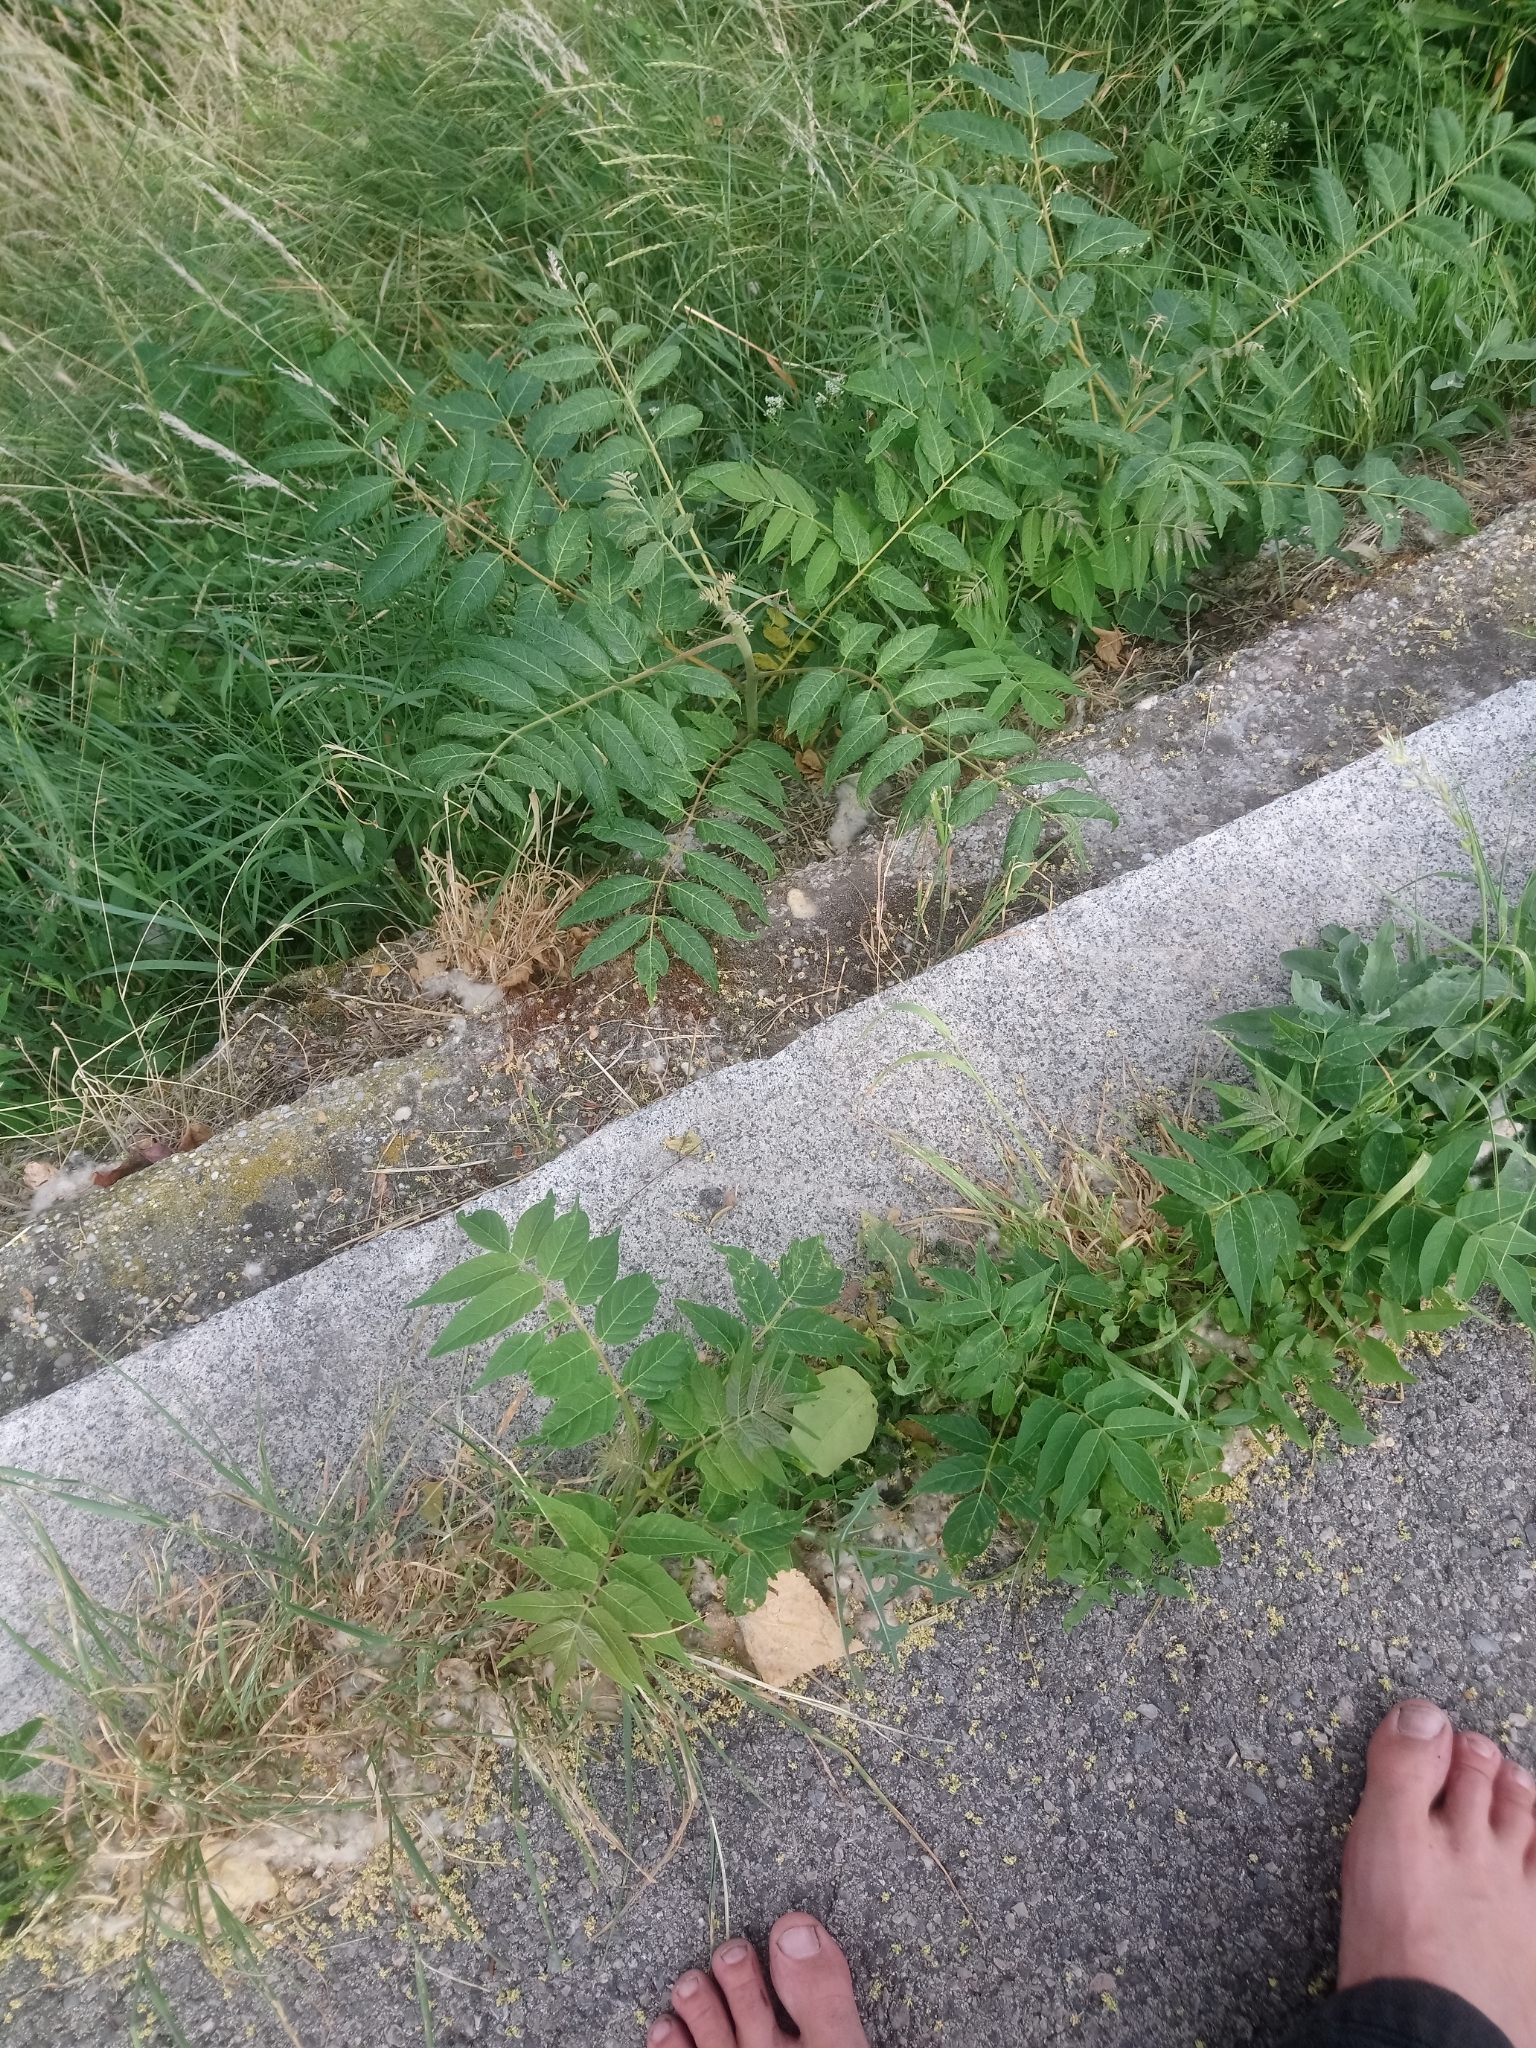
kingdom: Plantae
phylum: Tracheophyta
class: Magnoliopsida
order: Sapindales
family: Simaroubaceae
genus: Ailanthus
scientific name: Ailanthus altissima
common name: Tree-of-heaven
